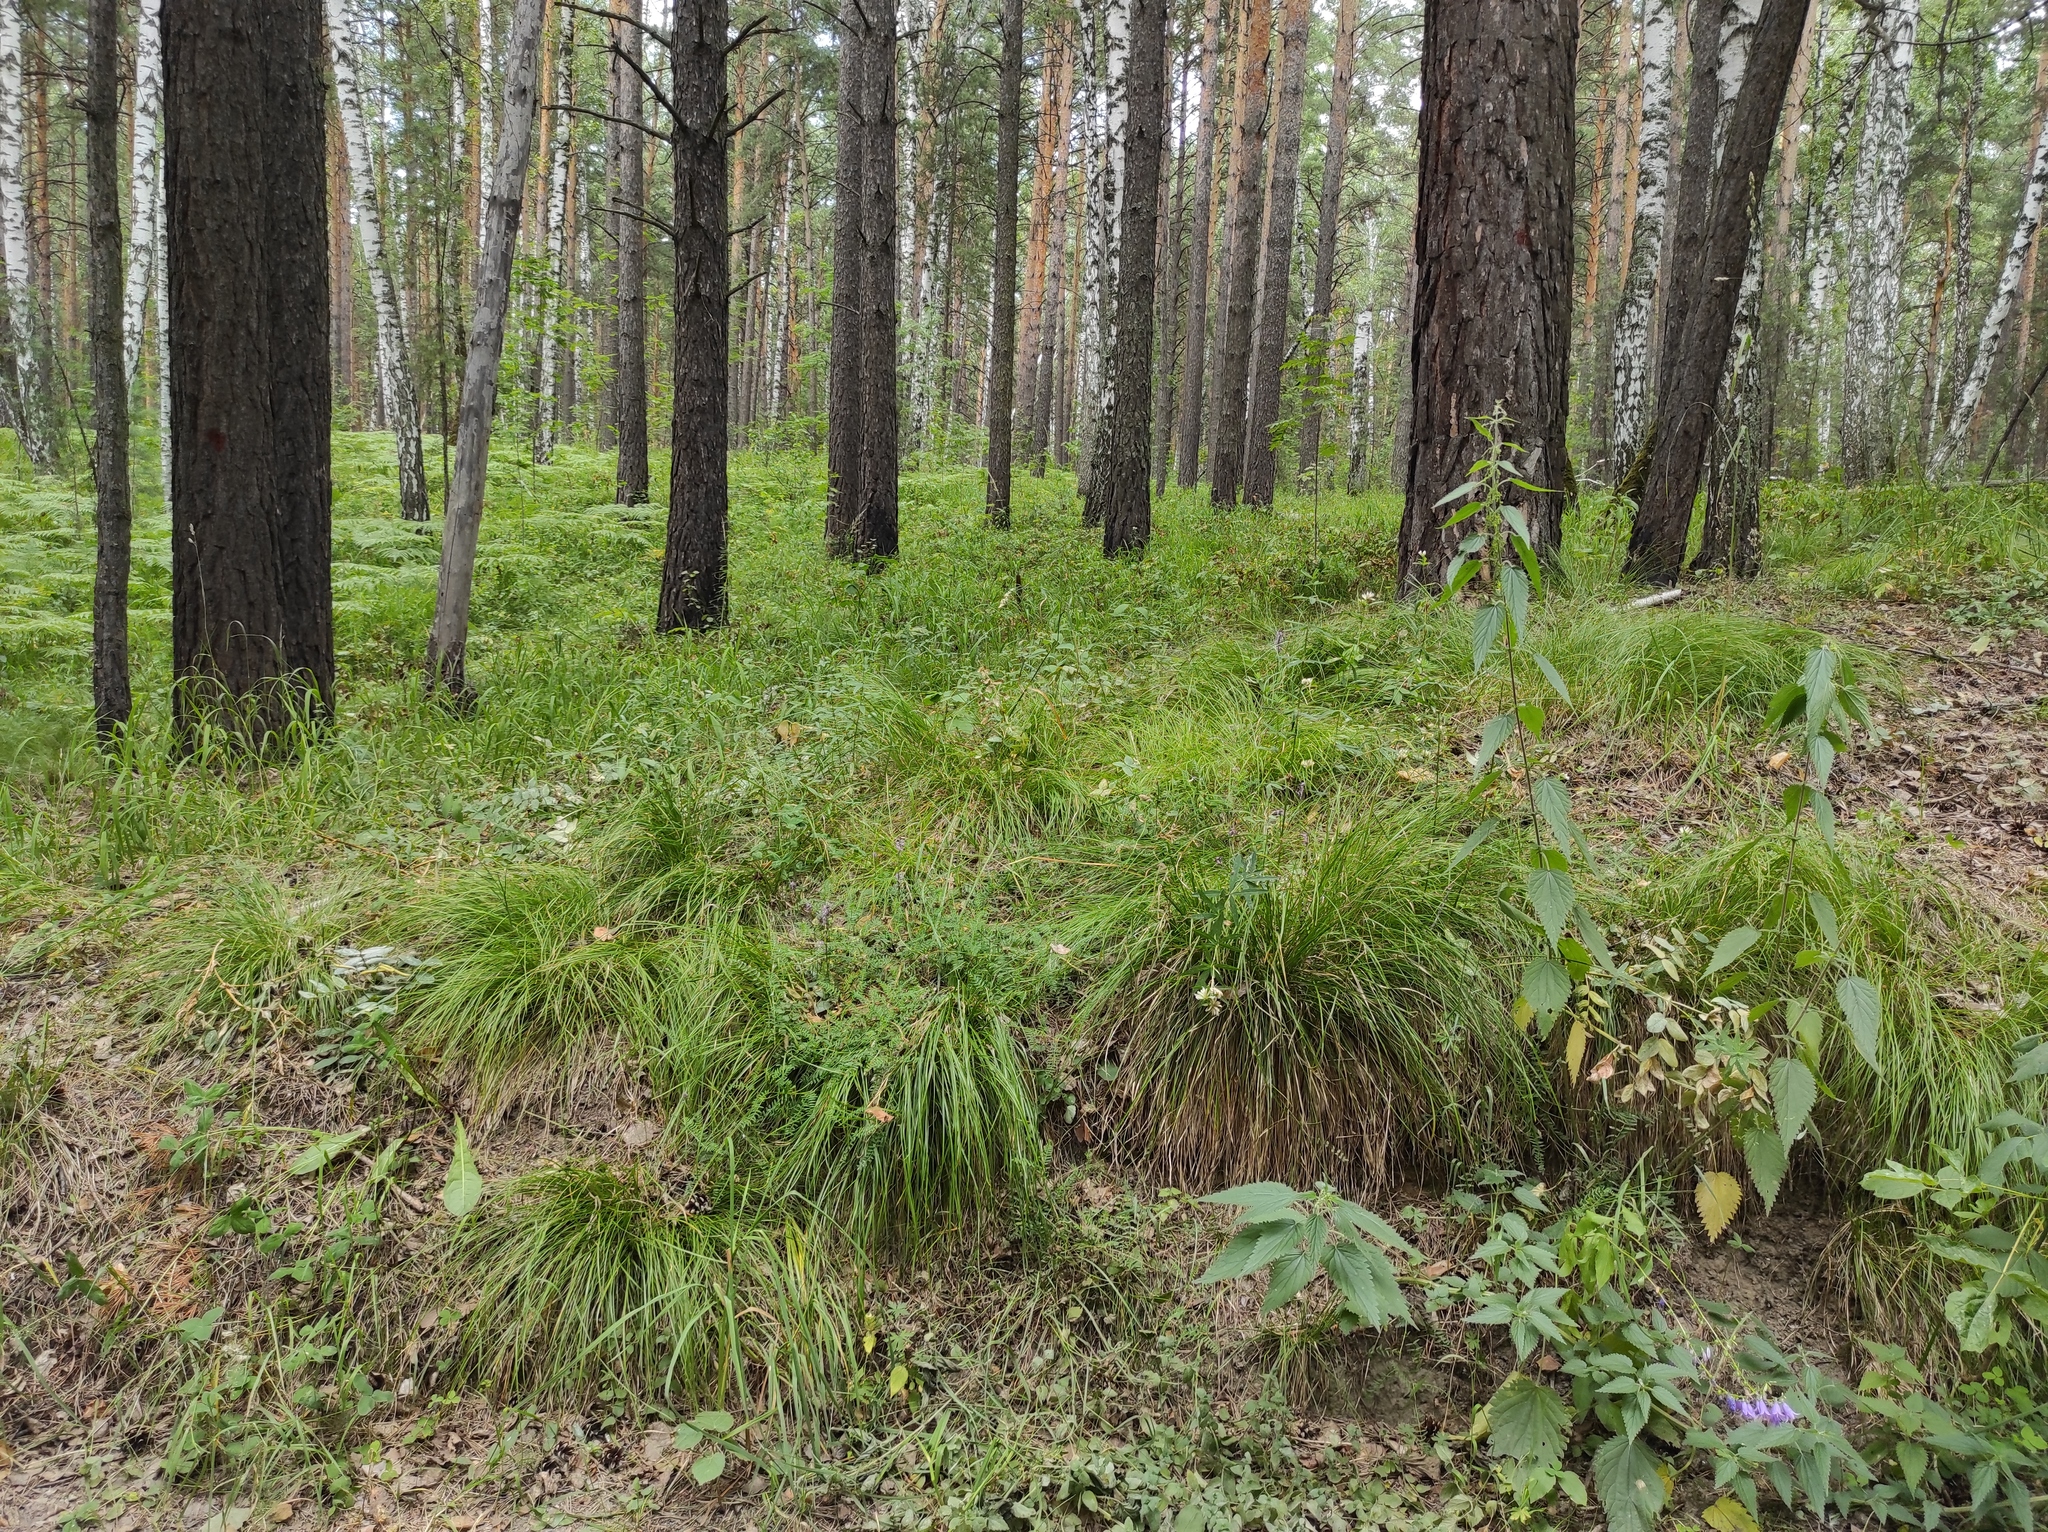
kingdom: Plantae
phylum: Tracheophyta
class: Liliopsida
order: Asparagales
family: Orchidaceae
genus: Hemipilia
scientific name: Hemipilia cucullata
